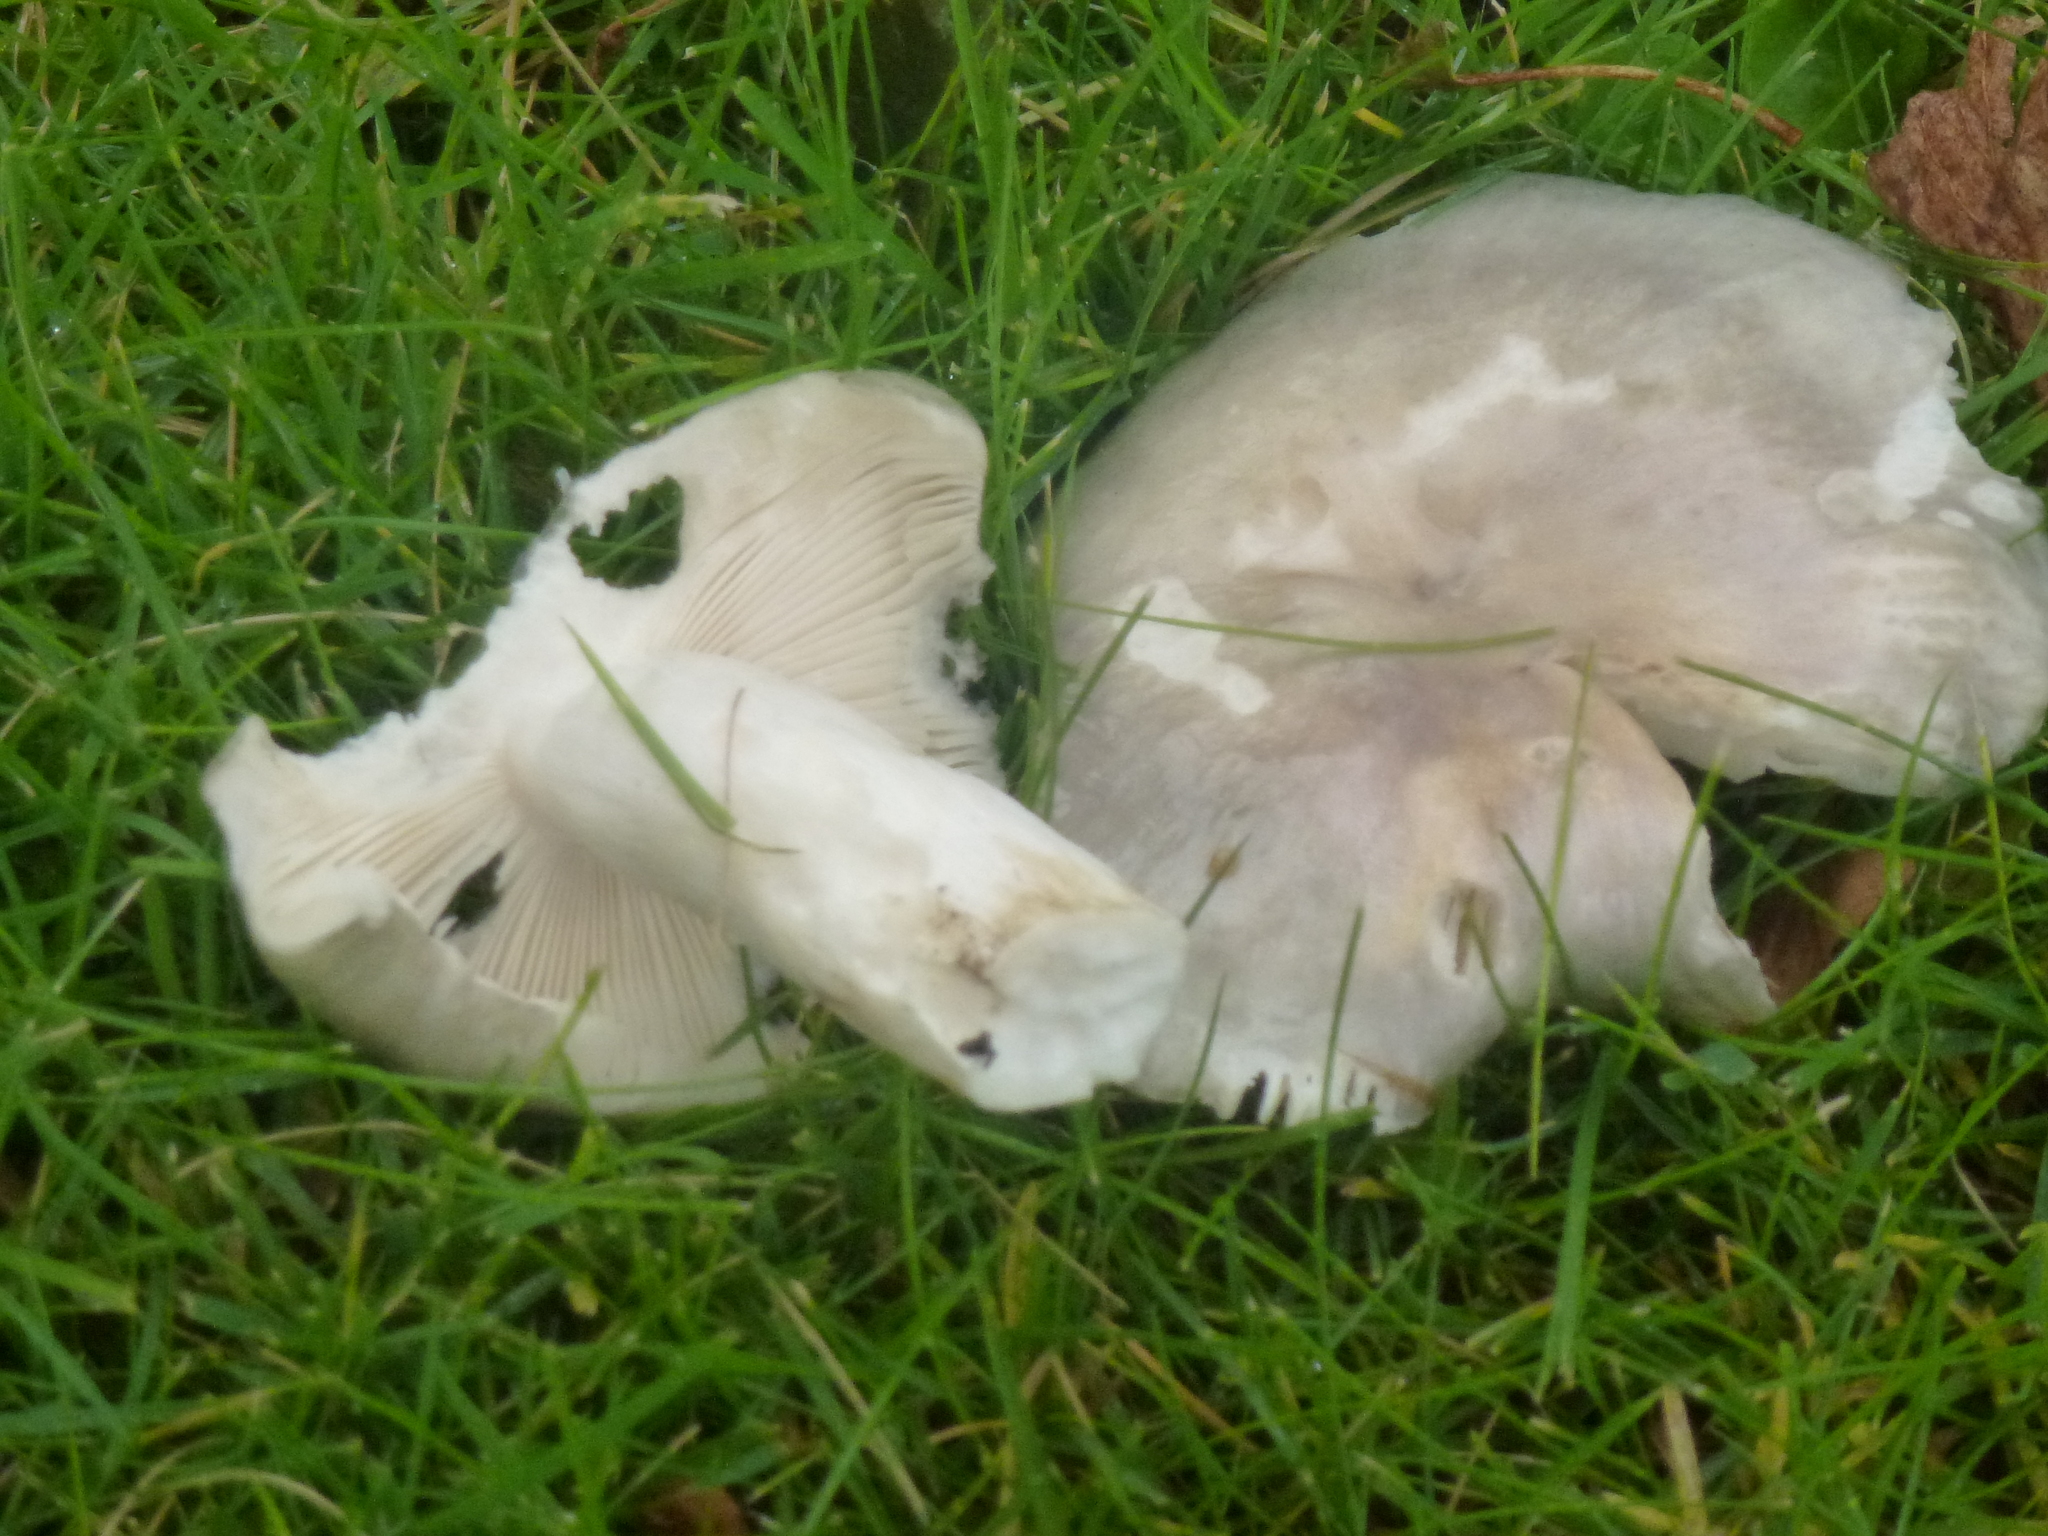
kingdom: Fungi
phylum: Basidiomycota
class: Agaricomycetes
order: Agaricales
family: Tricholomataceae
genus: Clitocybe
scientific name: Clitocybe nebularis
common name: Clouded agaric
